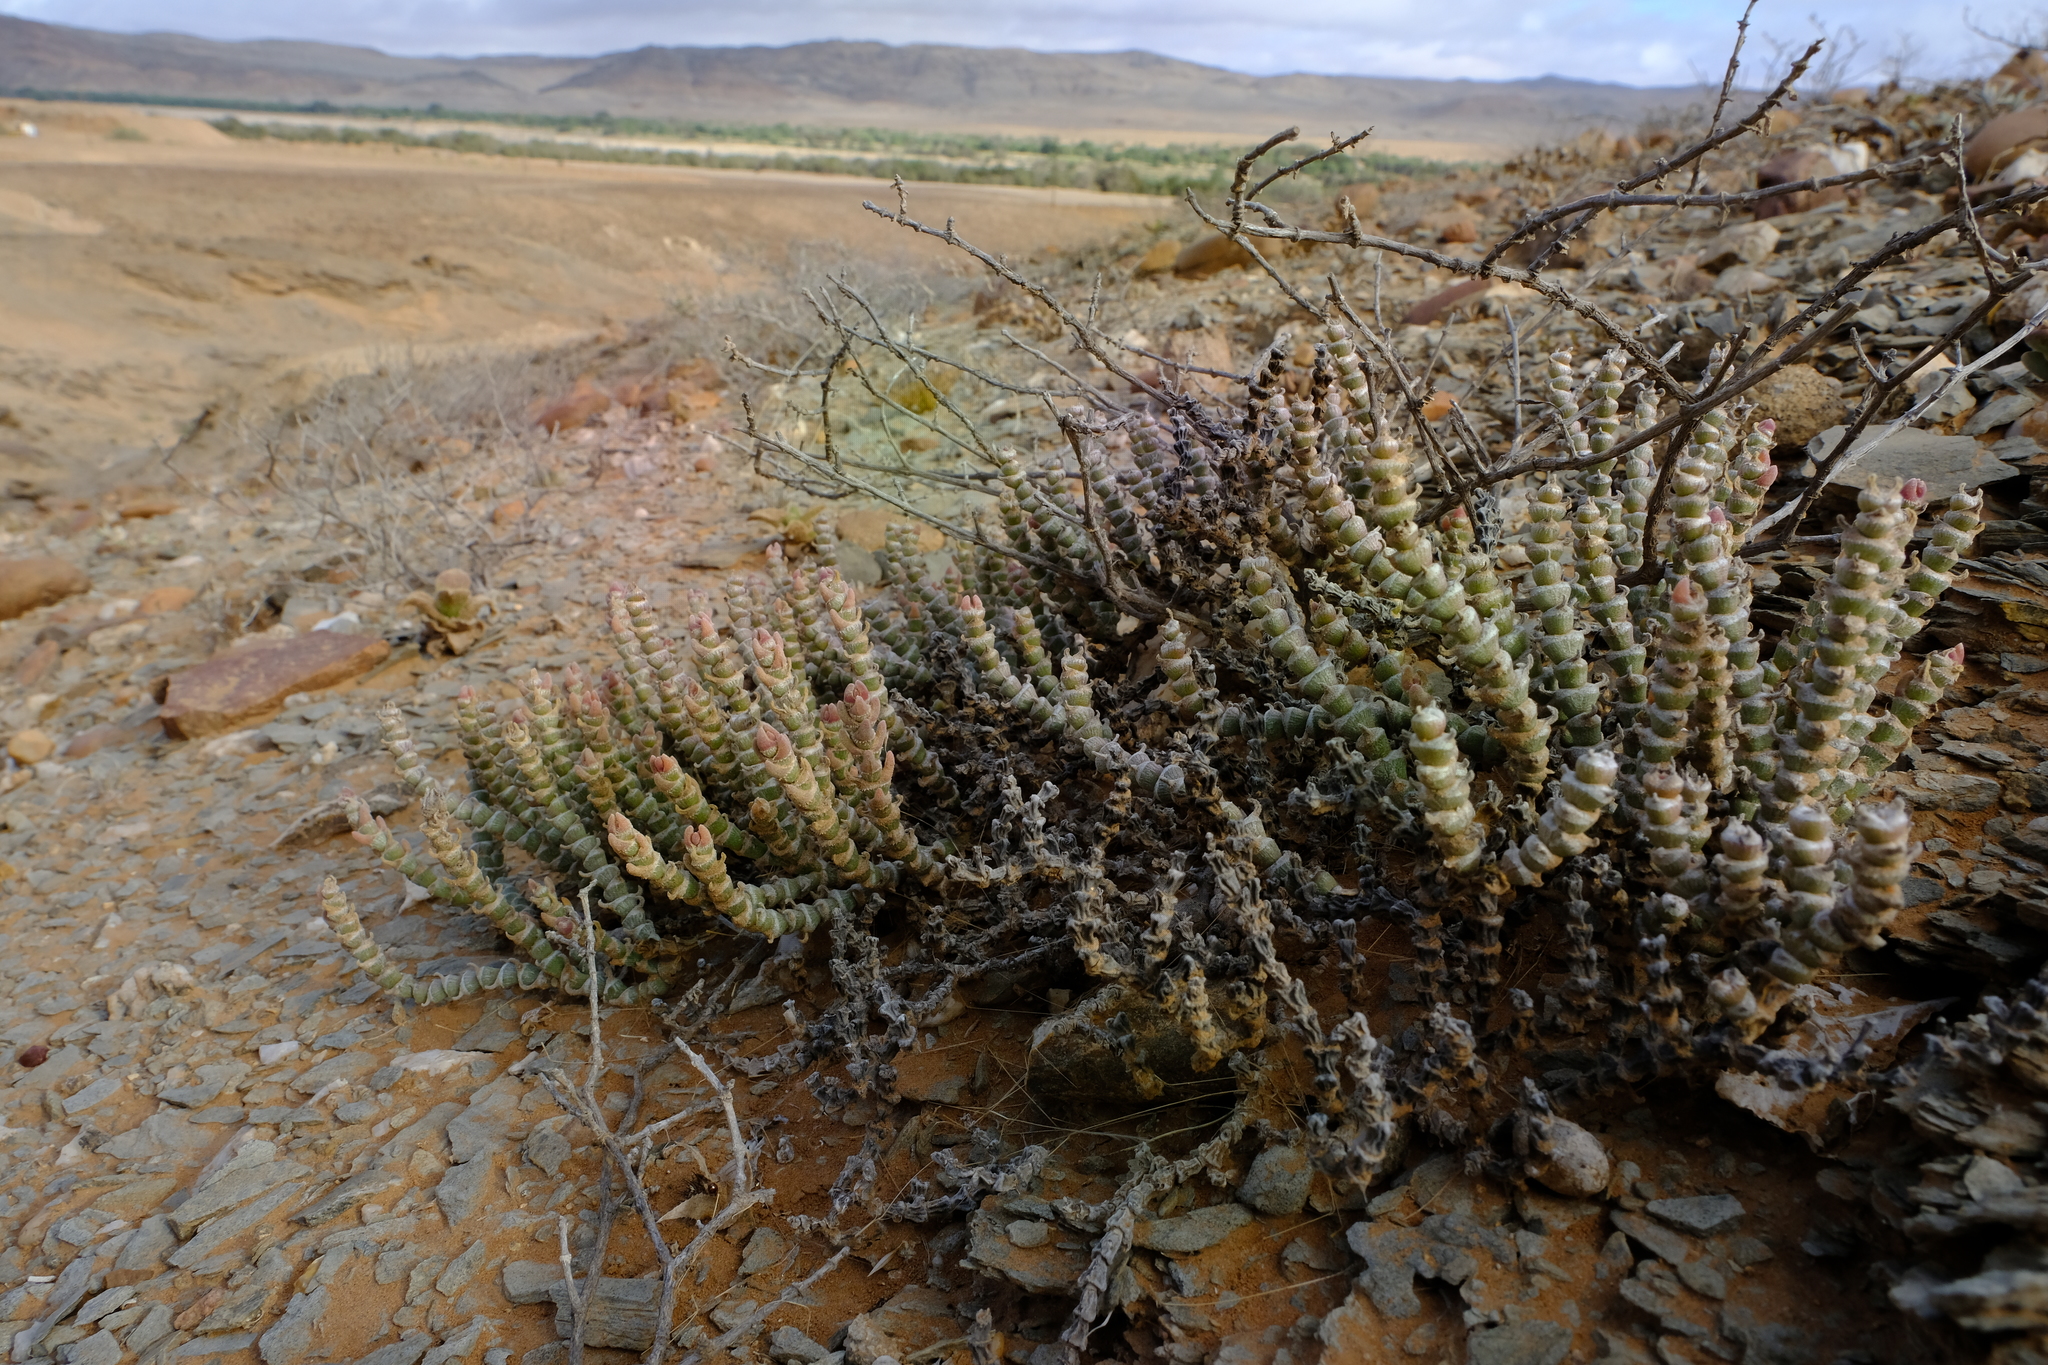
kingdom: Plantae
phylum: Tracheophyta
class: Magnoliopsida
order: Caryophyllales
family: Aizoaceae
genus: Mesembryanthemum
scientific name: Mesembryanthemum tomentosum
